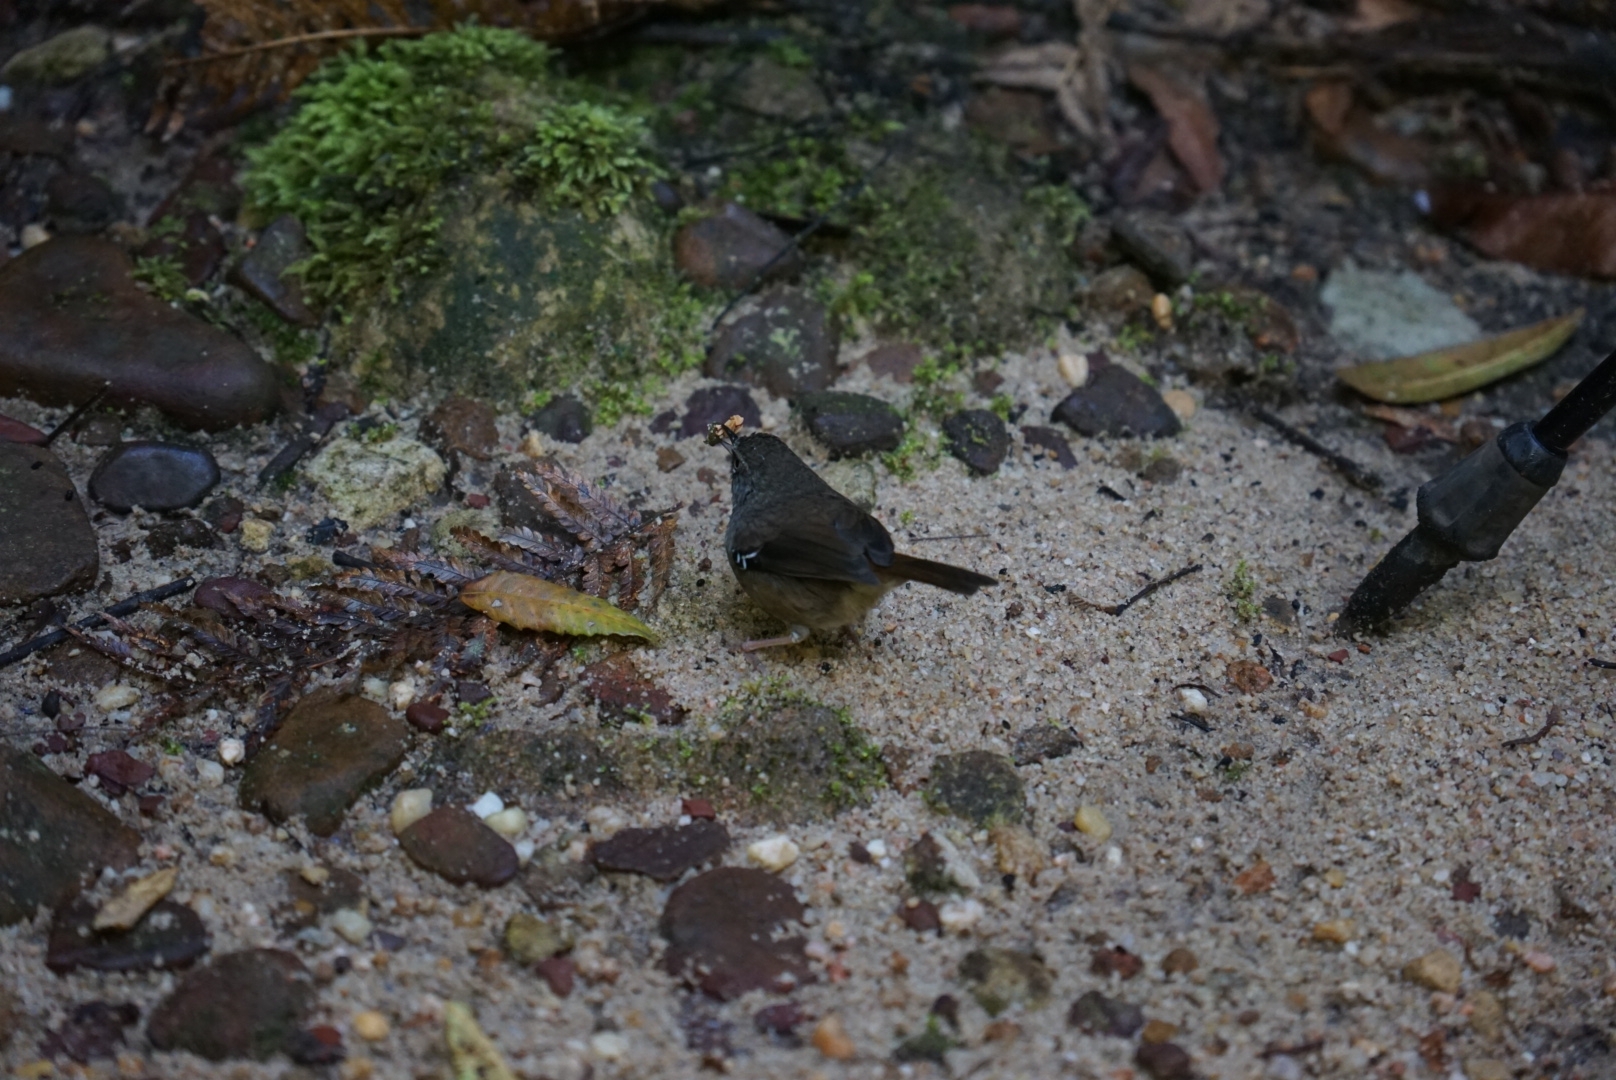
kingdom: Animalia
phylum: Chordata
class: Aves
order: Passeriformes
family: Acanthizidae
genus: Sericornis
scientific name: Sericornis frontalis
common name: White-browed scrubwren
